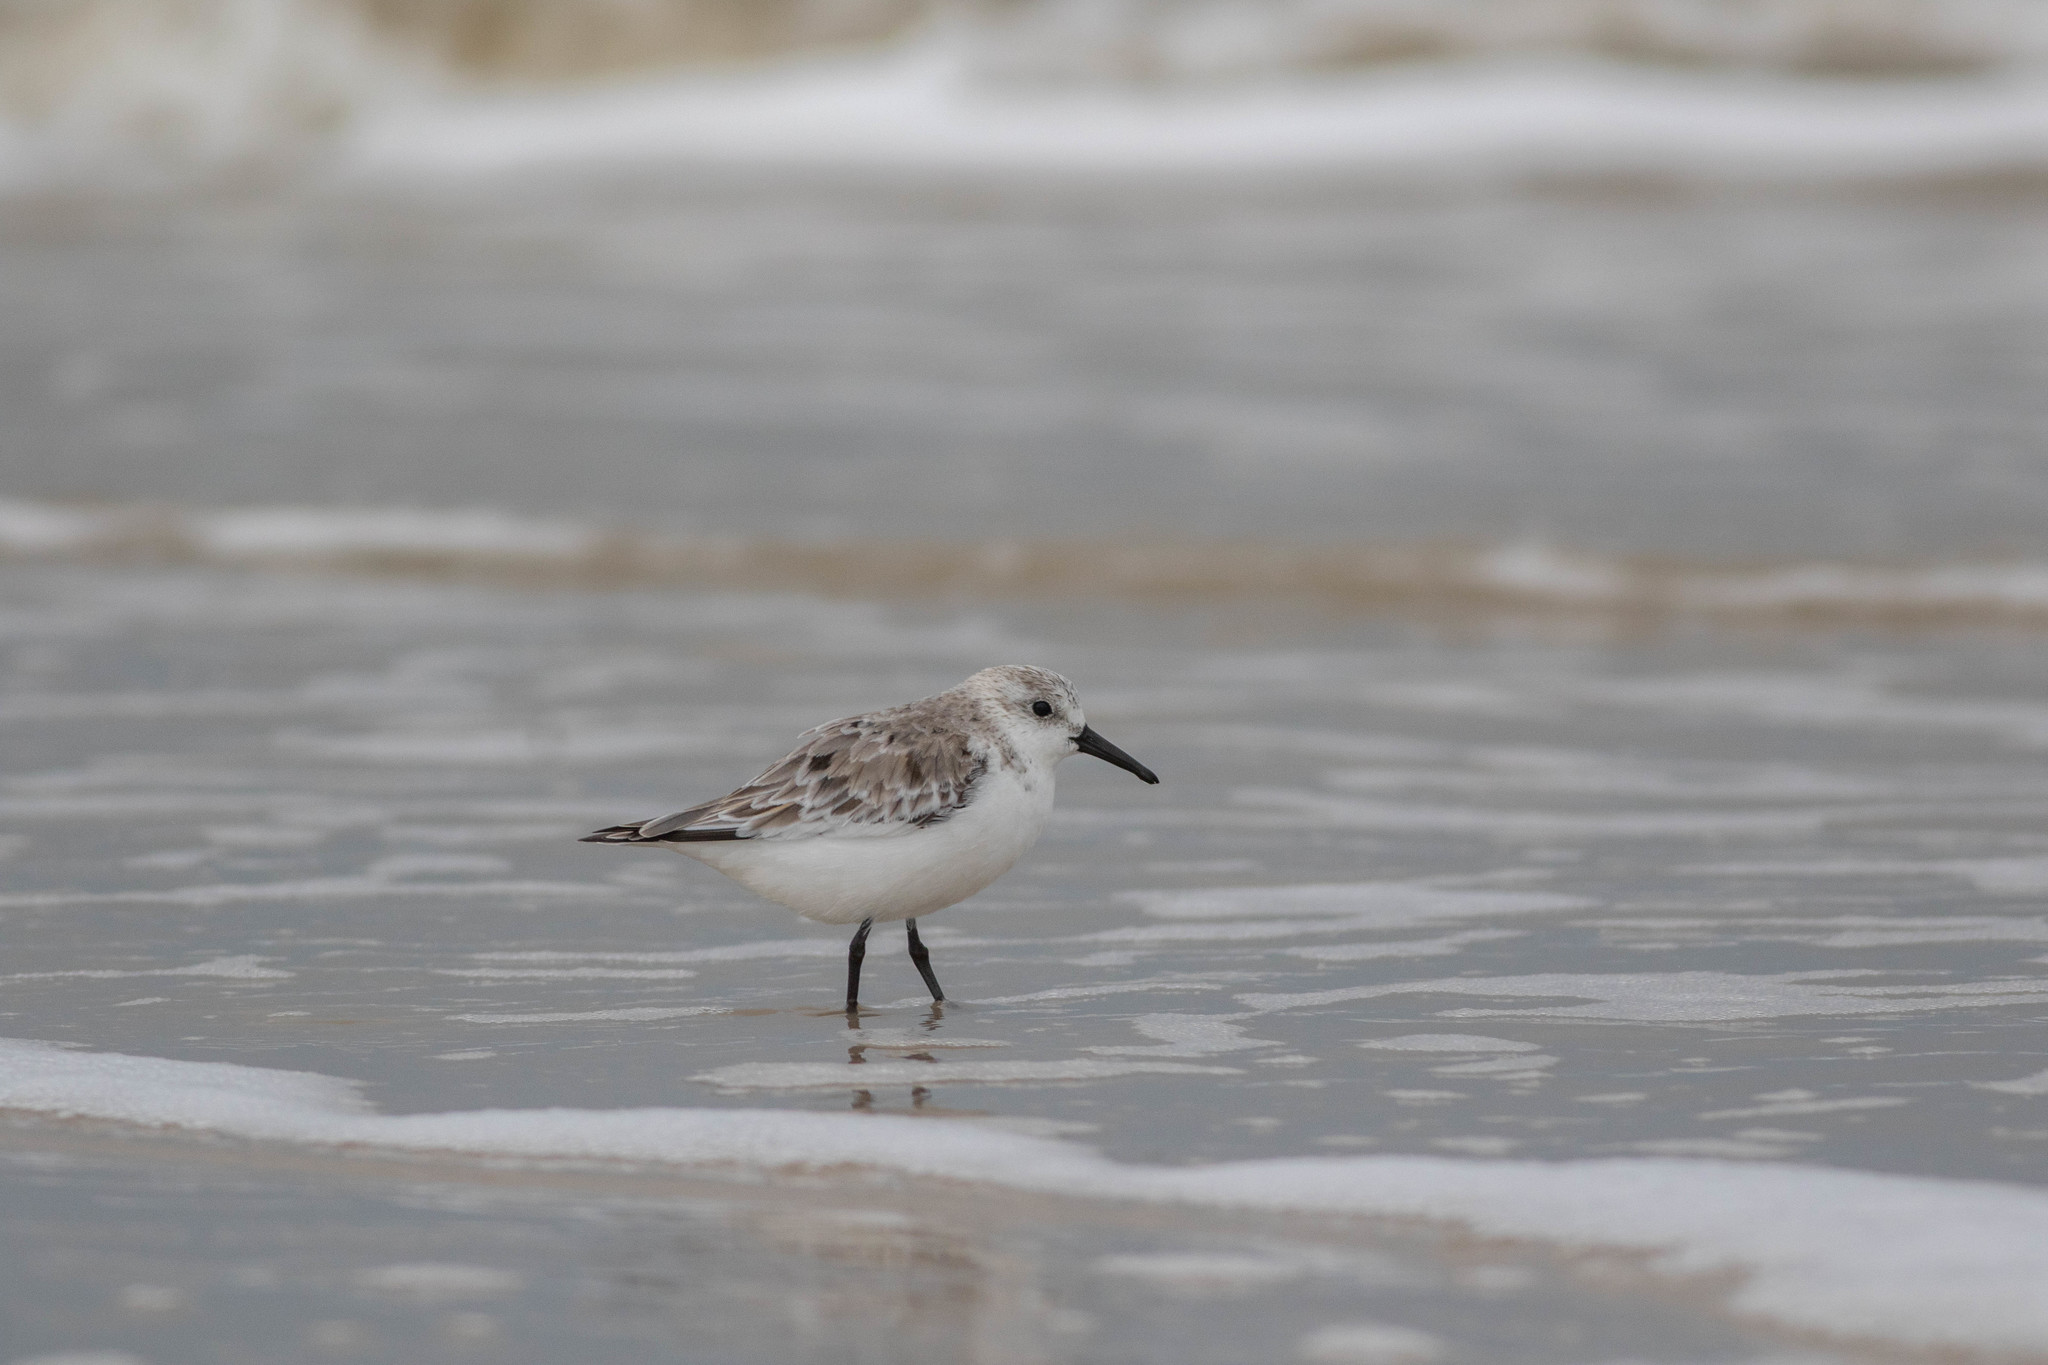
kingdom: Animalia
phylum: Chordata
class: Aves
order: Charadriiformes
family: Scolopacidae
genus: Calidris
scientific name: Calidris alba
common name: Sanderling
